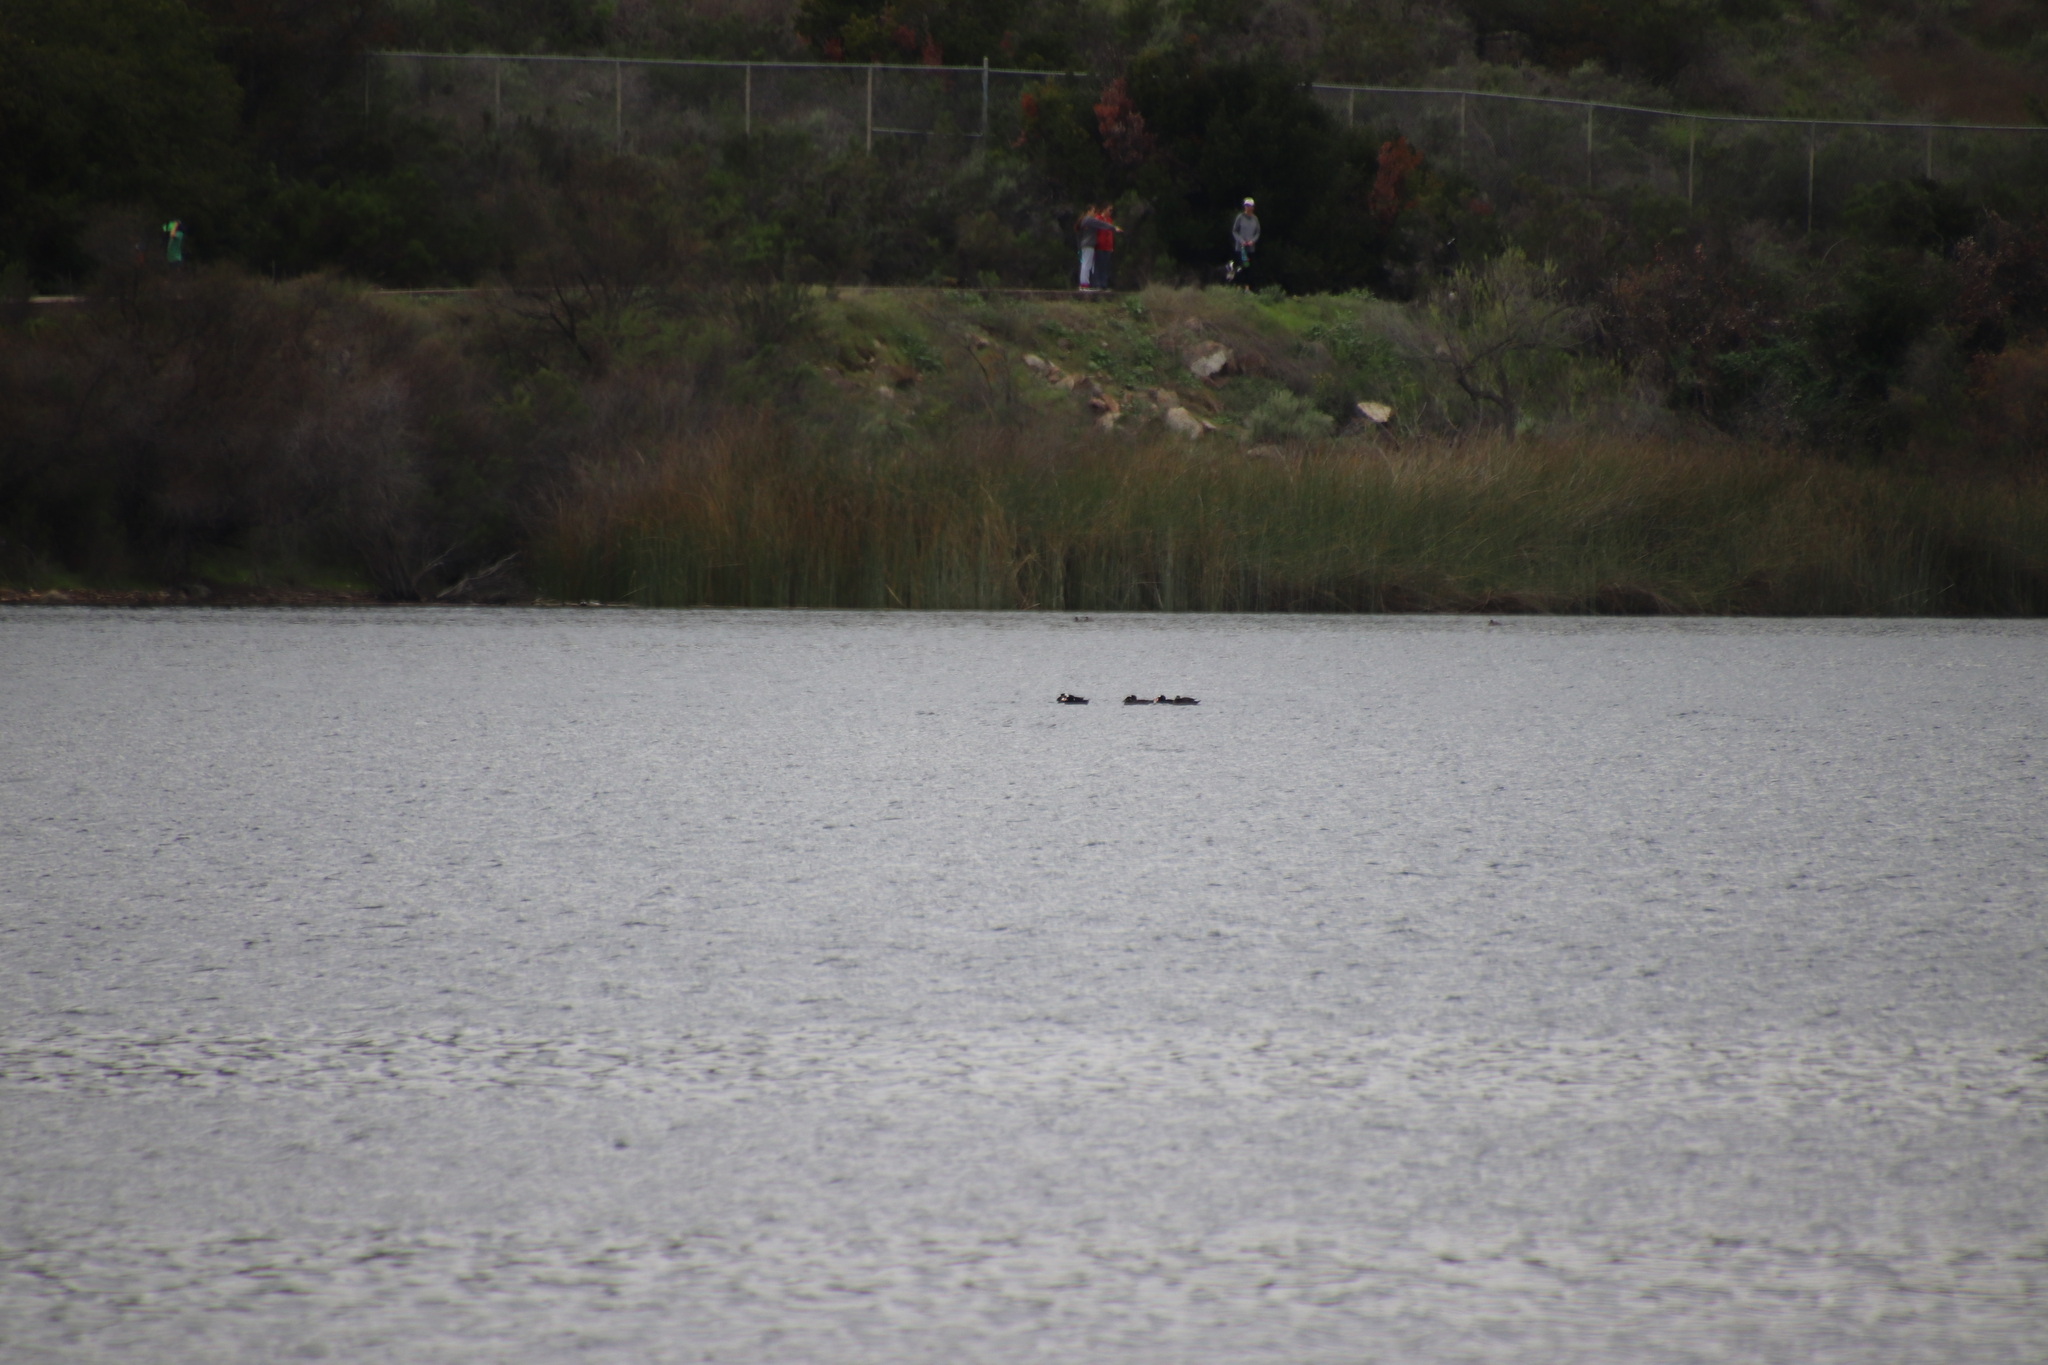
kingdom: Animalia
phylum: Chordata
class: Aves
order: Anseriformes
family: Anatidae
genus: Melanitta
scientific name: Melanitta perspicillata
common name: Surf scoter
